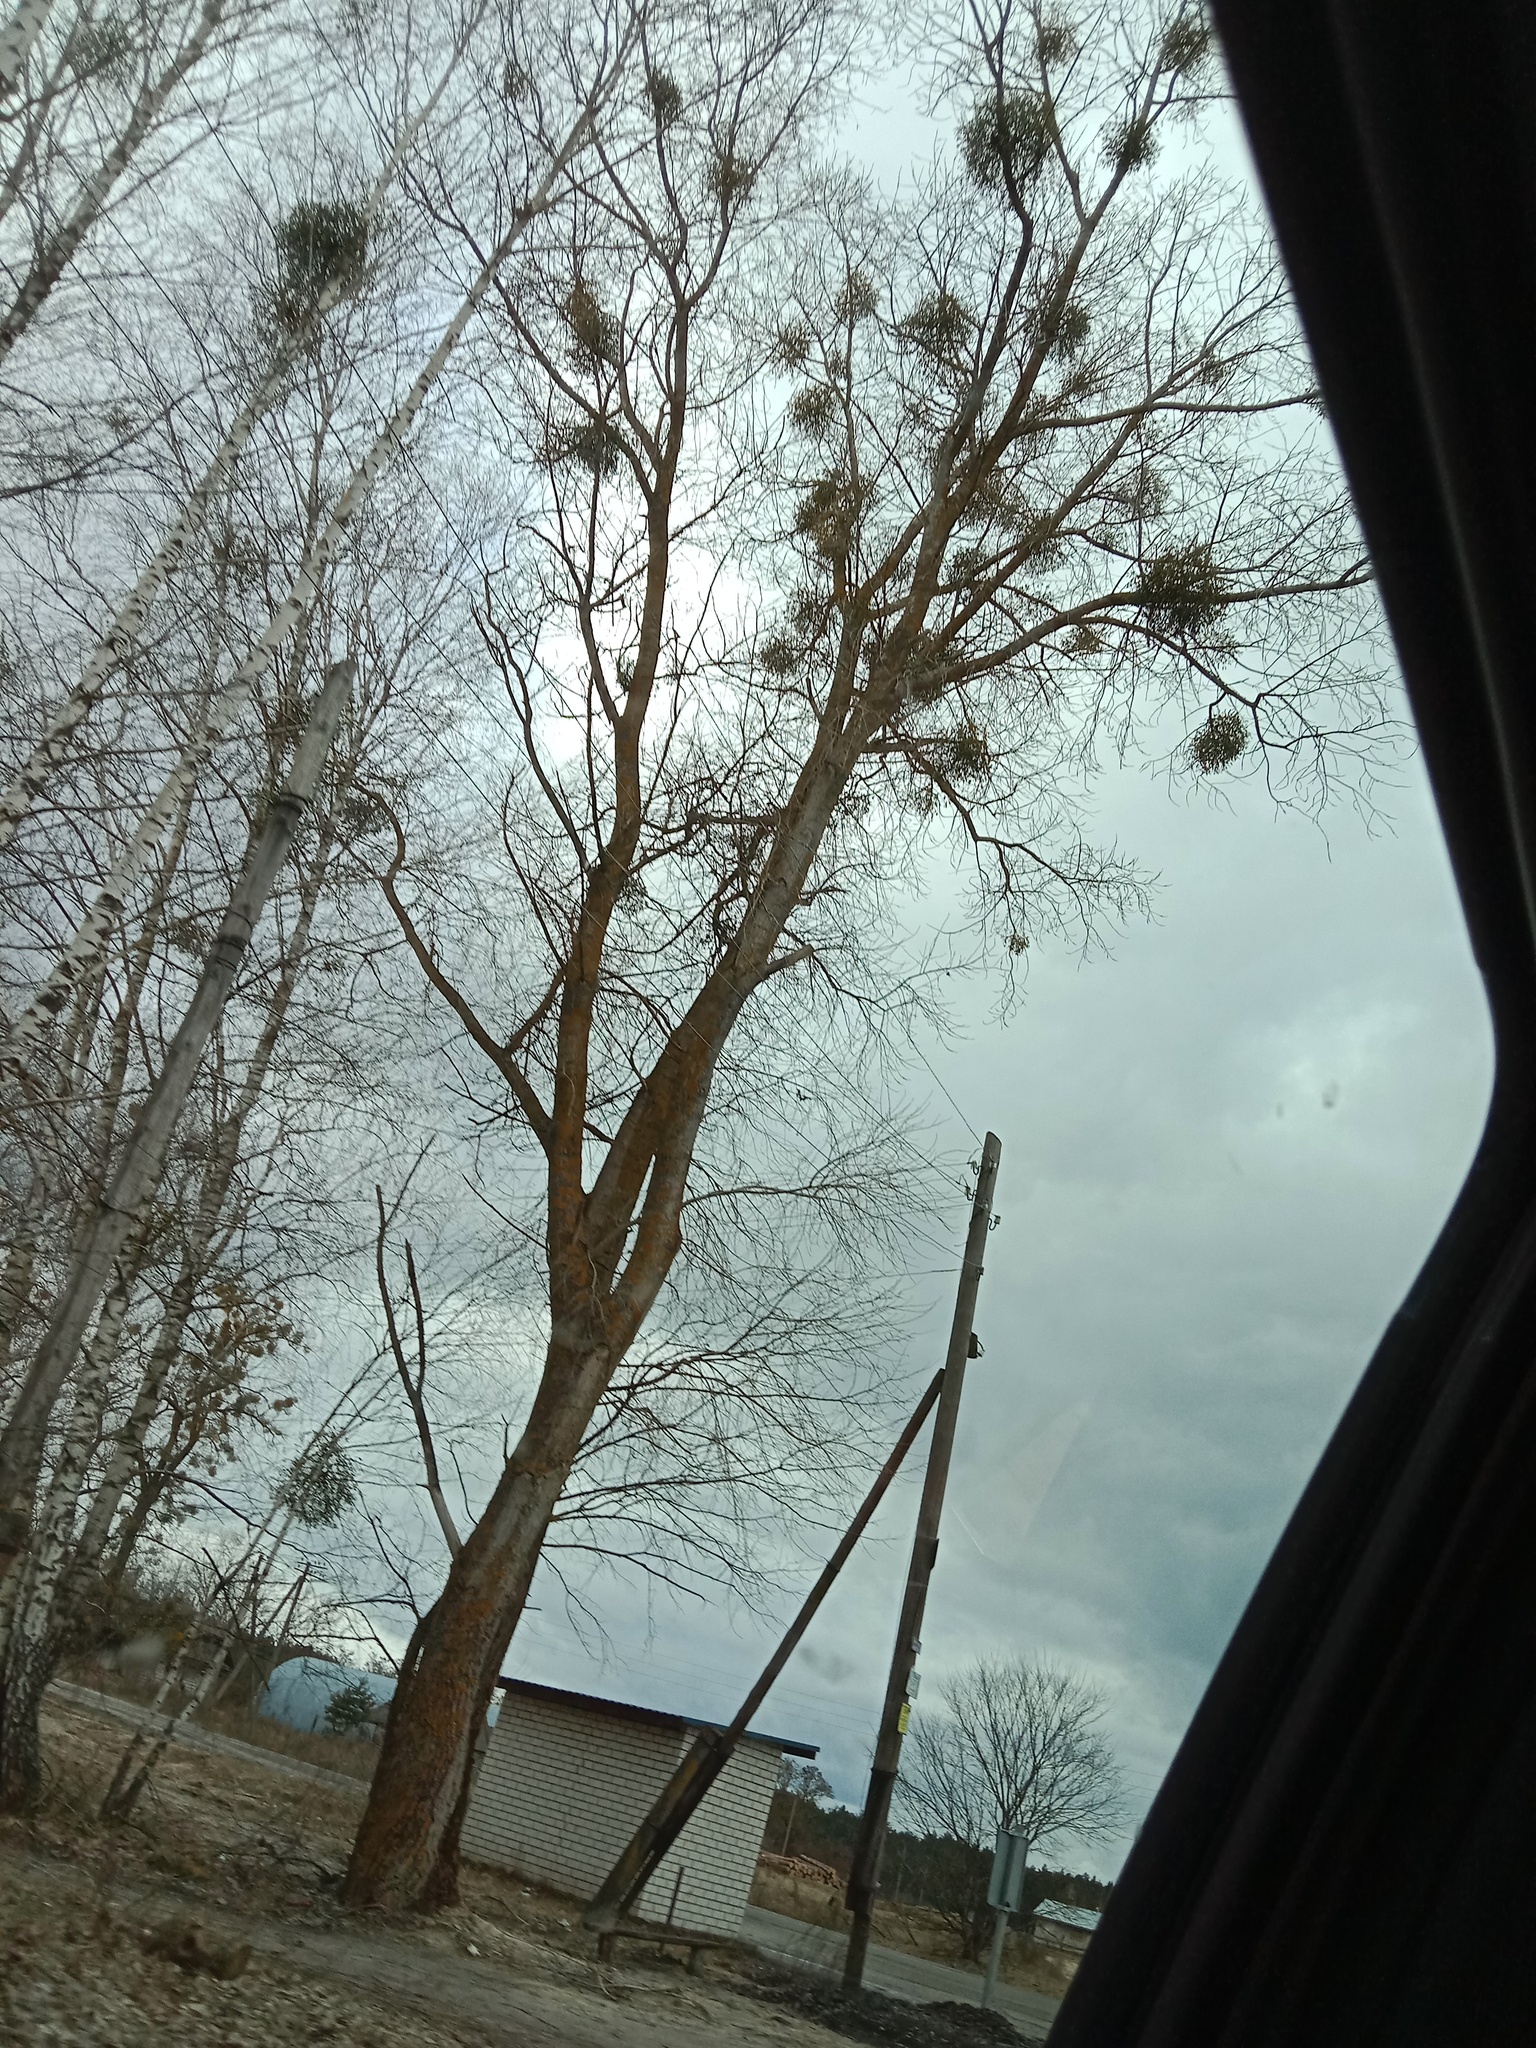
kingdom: Plantae
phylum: Tracheophyta
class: Magnoliopsida
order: Santalales
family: Viscaceae
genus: Viscum
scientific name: Viscum album
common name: Mistletoe
